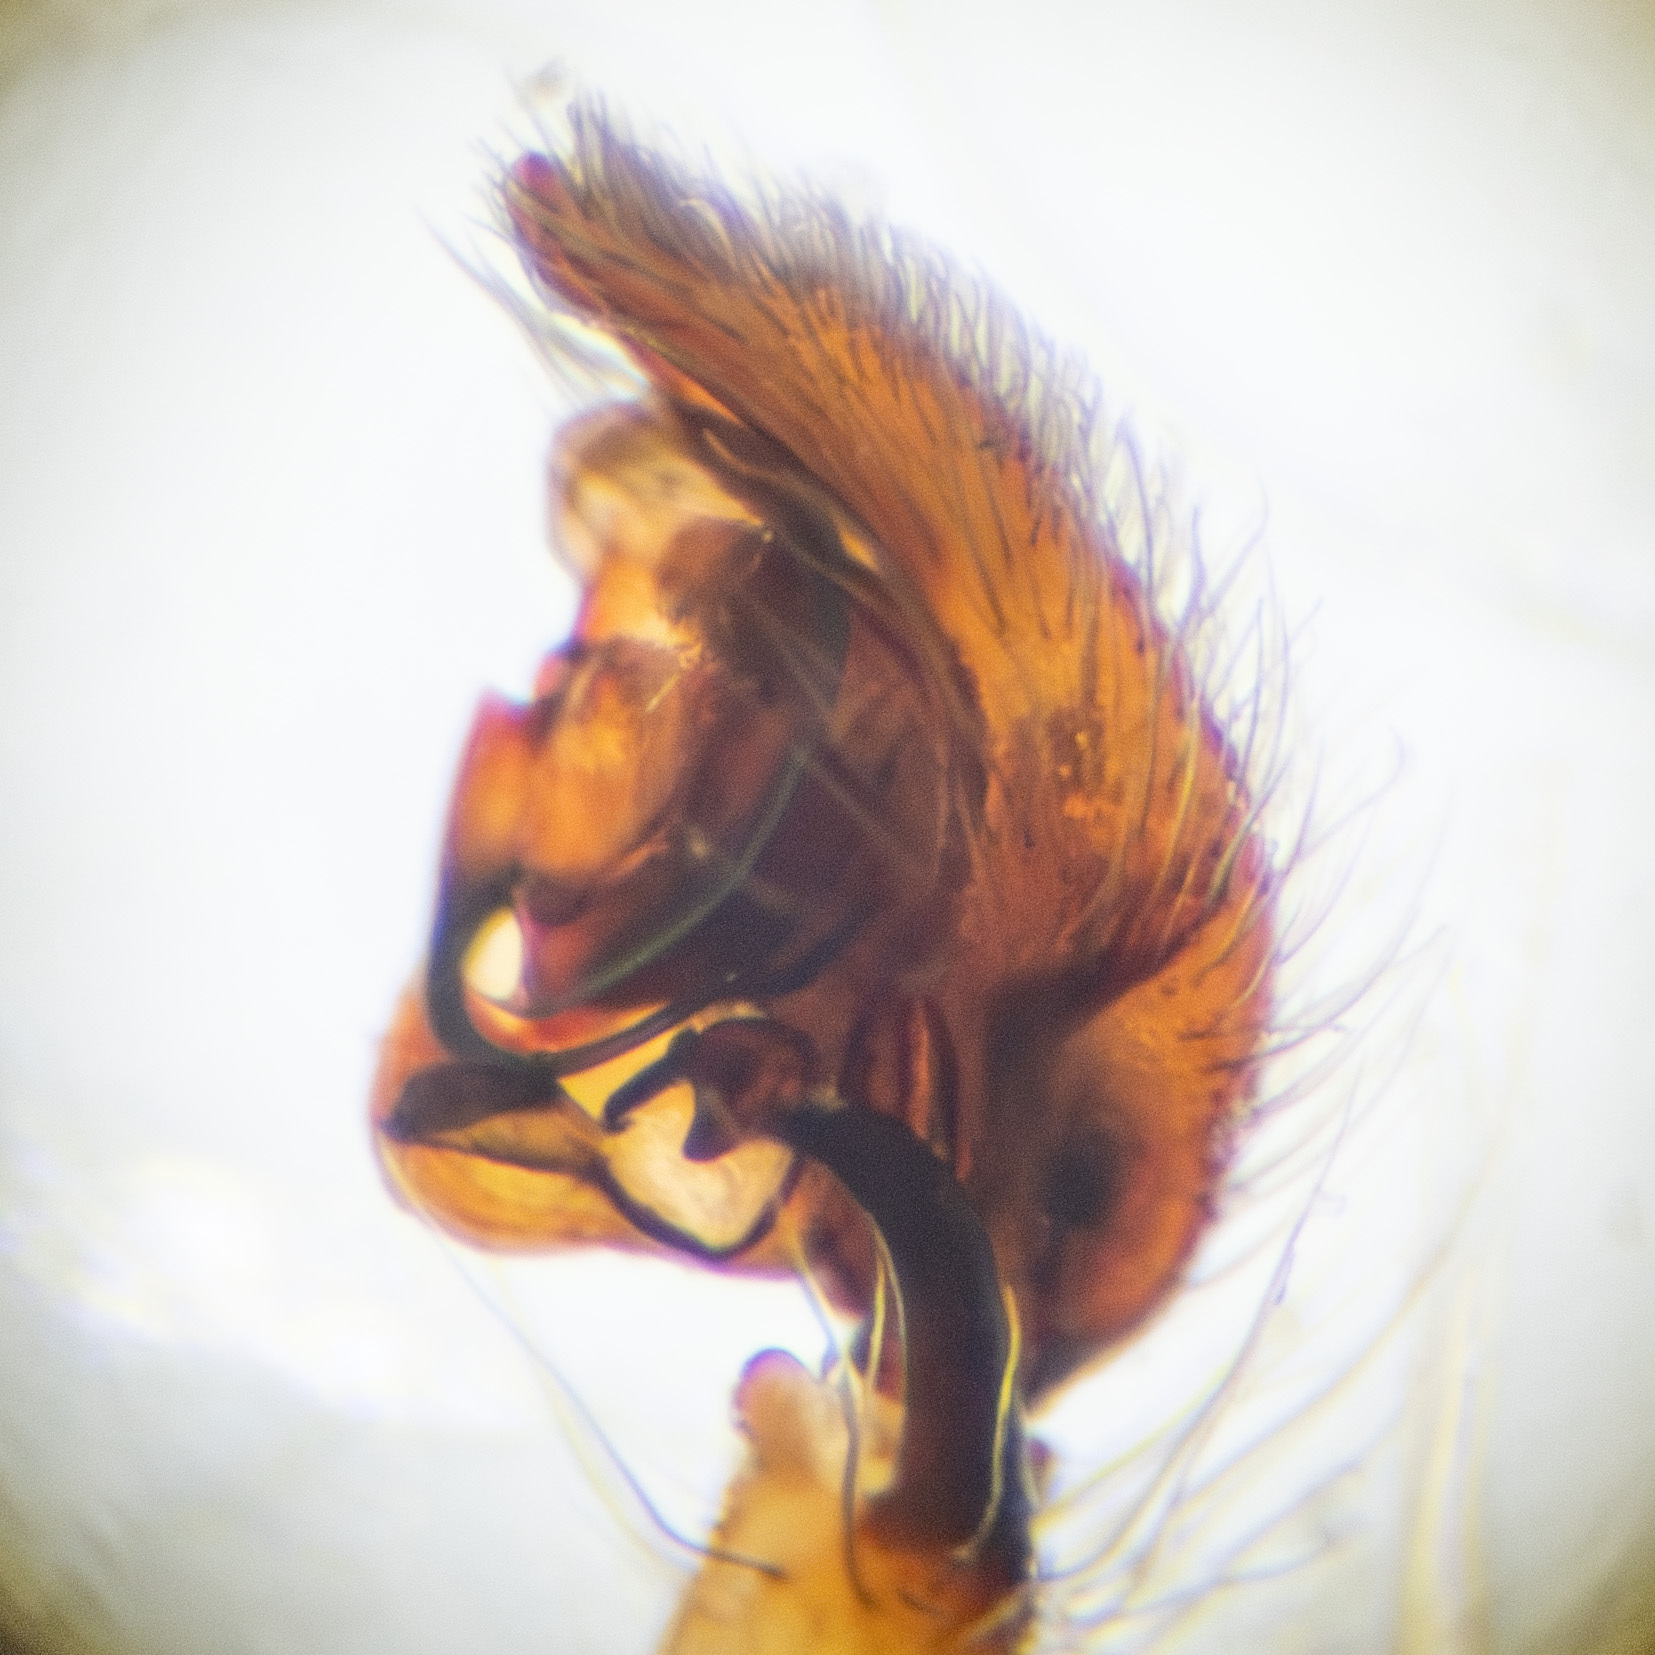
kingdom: Animalia
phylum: Arthropoda
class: Arachnida
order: Araneae
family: Anyphaenidae
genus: Hibana
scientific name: Hibana futilis
